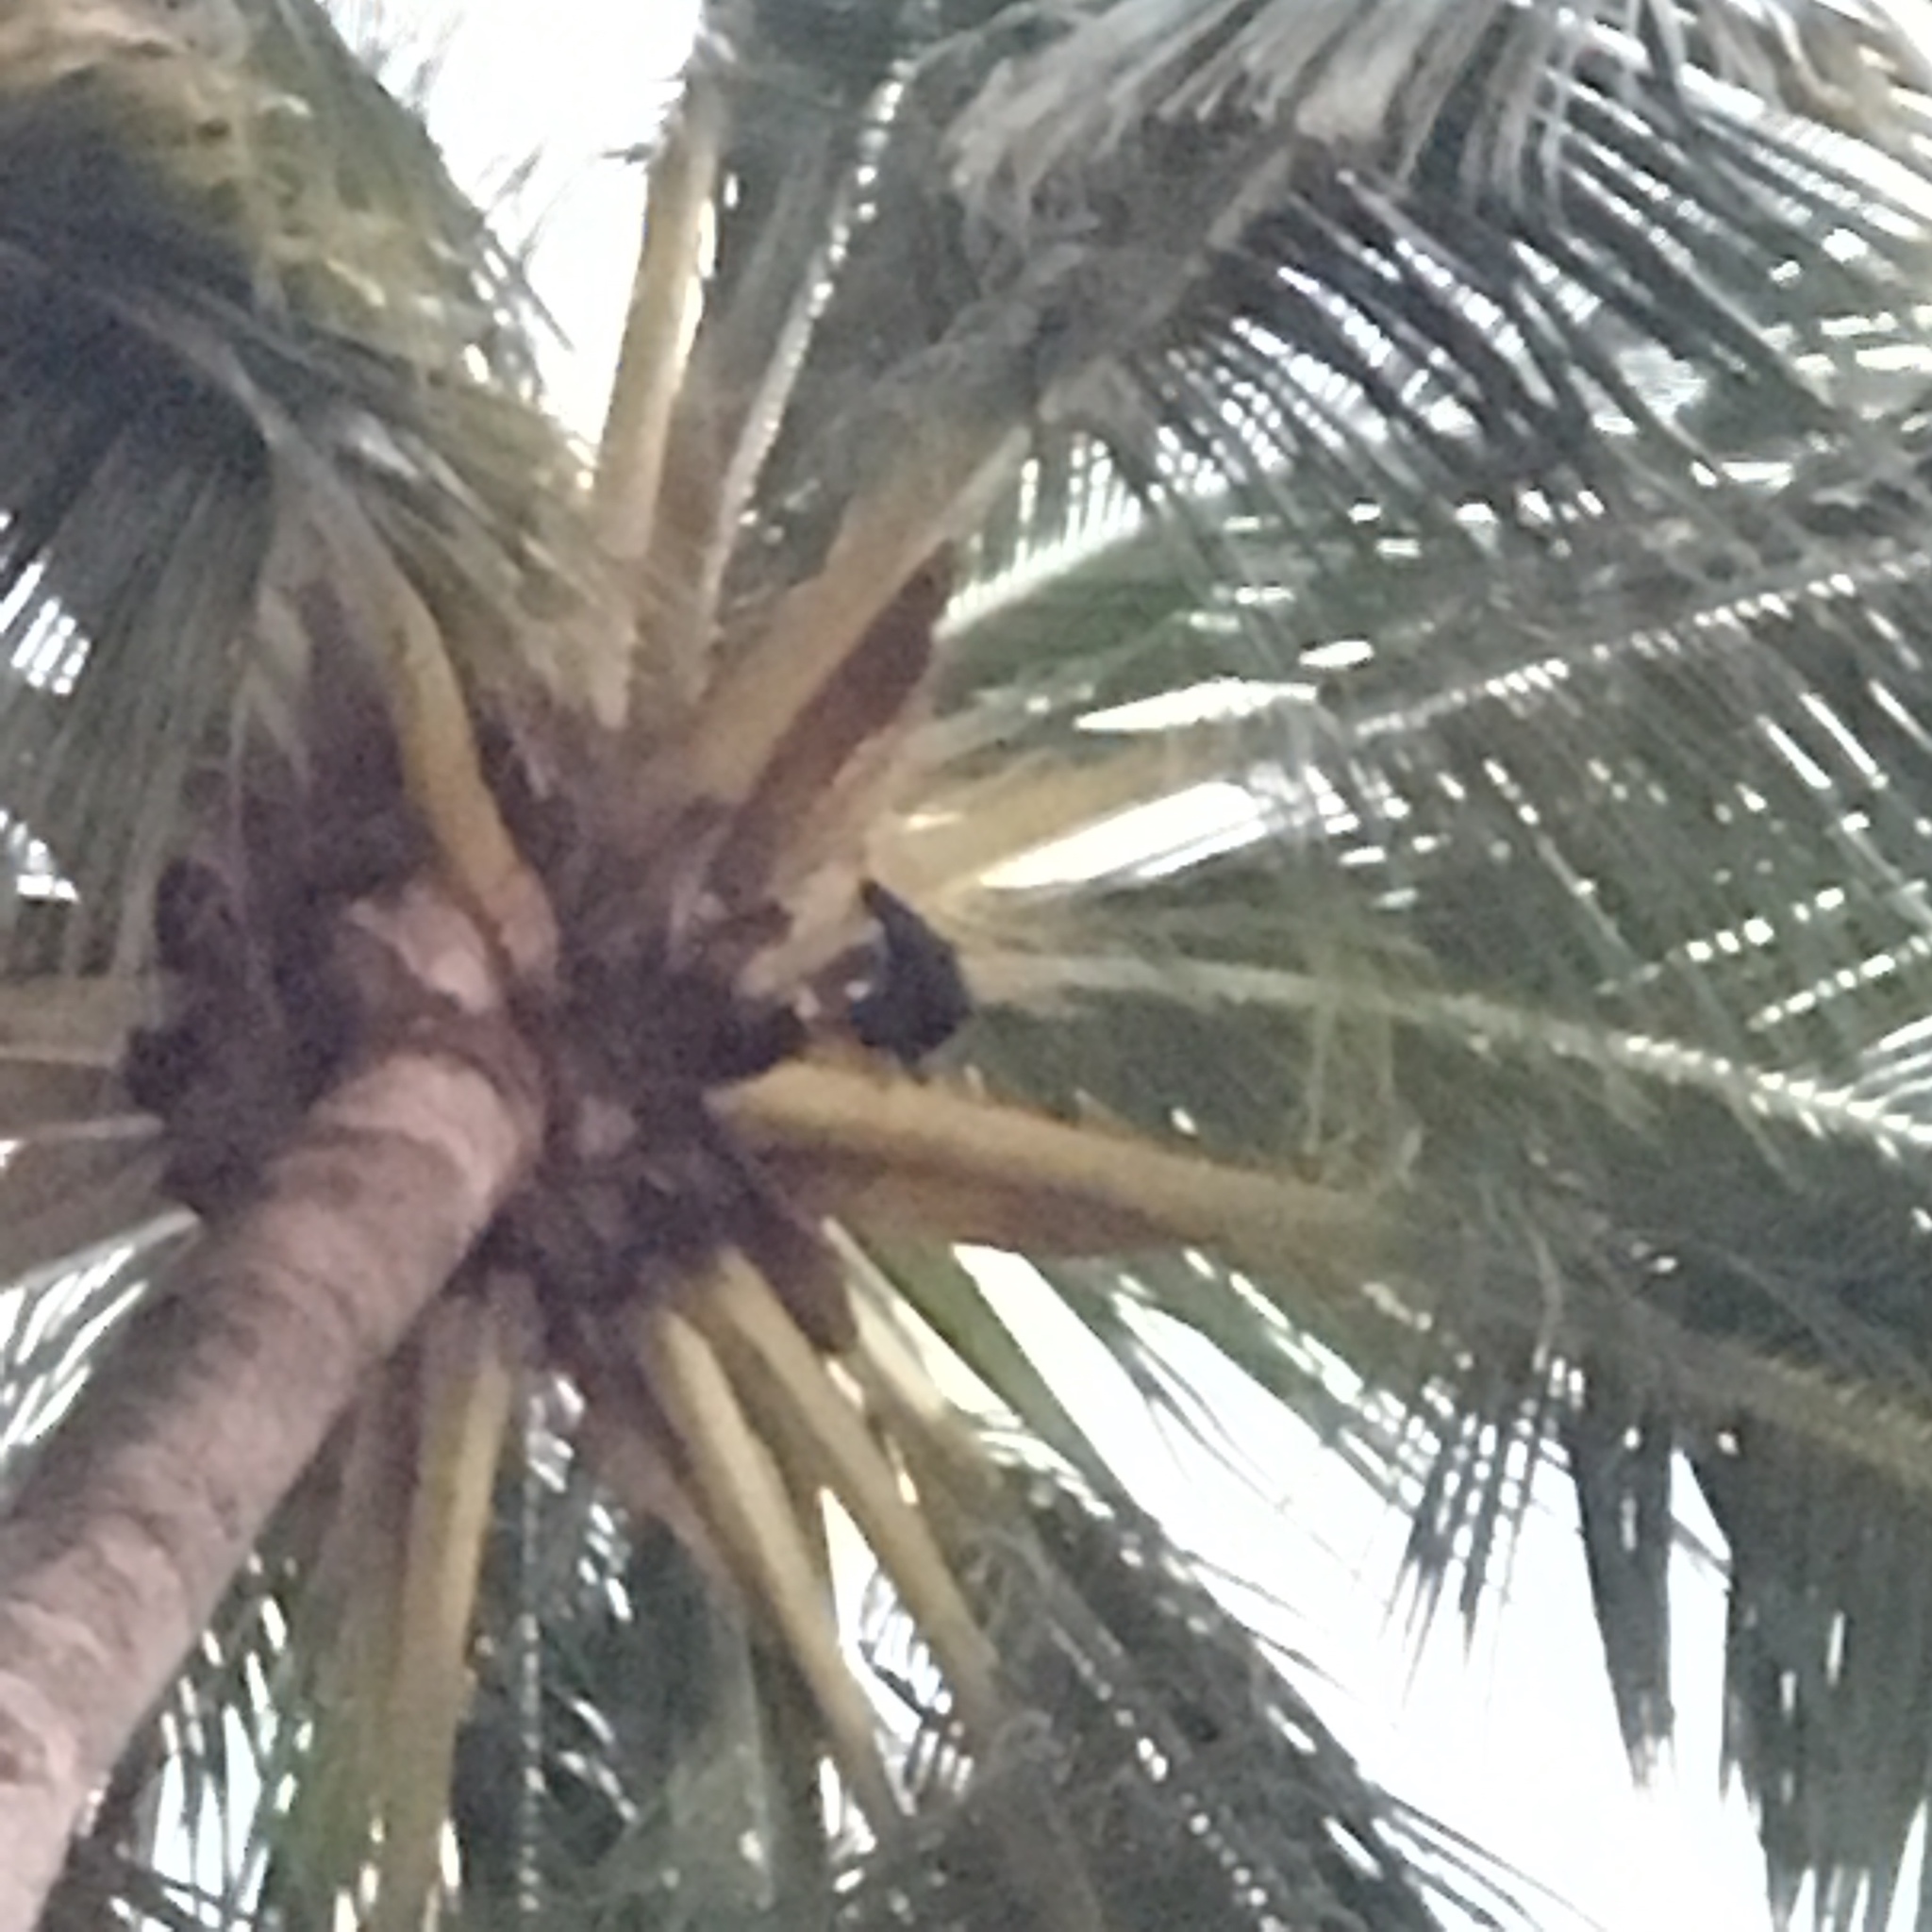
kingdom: Animalia
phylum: Chordata
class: Mammalia
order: Chiroptera
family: Pteropodidae
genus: Pteropus
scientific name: Pteropus vampyrus
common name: Large flying fox
